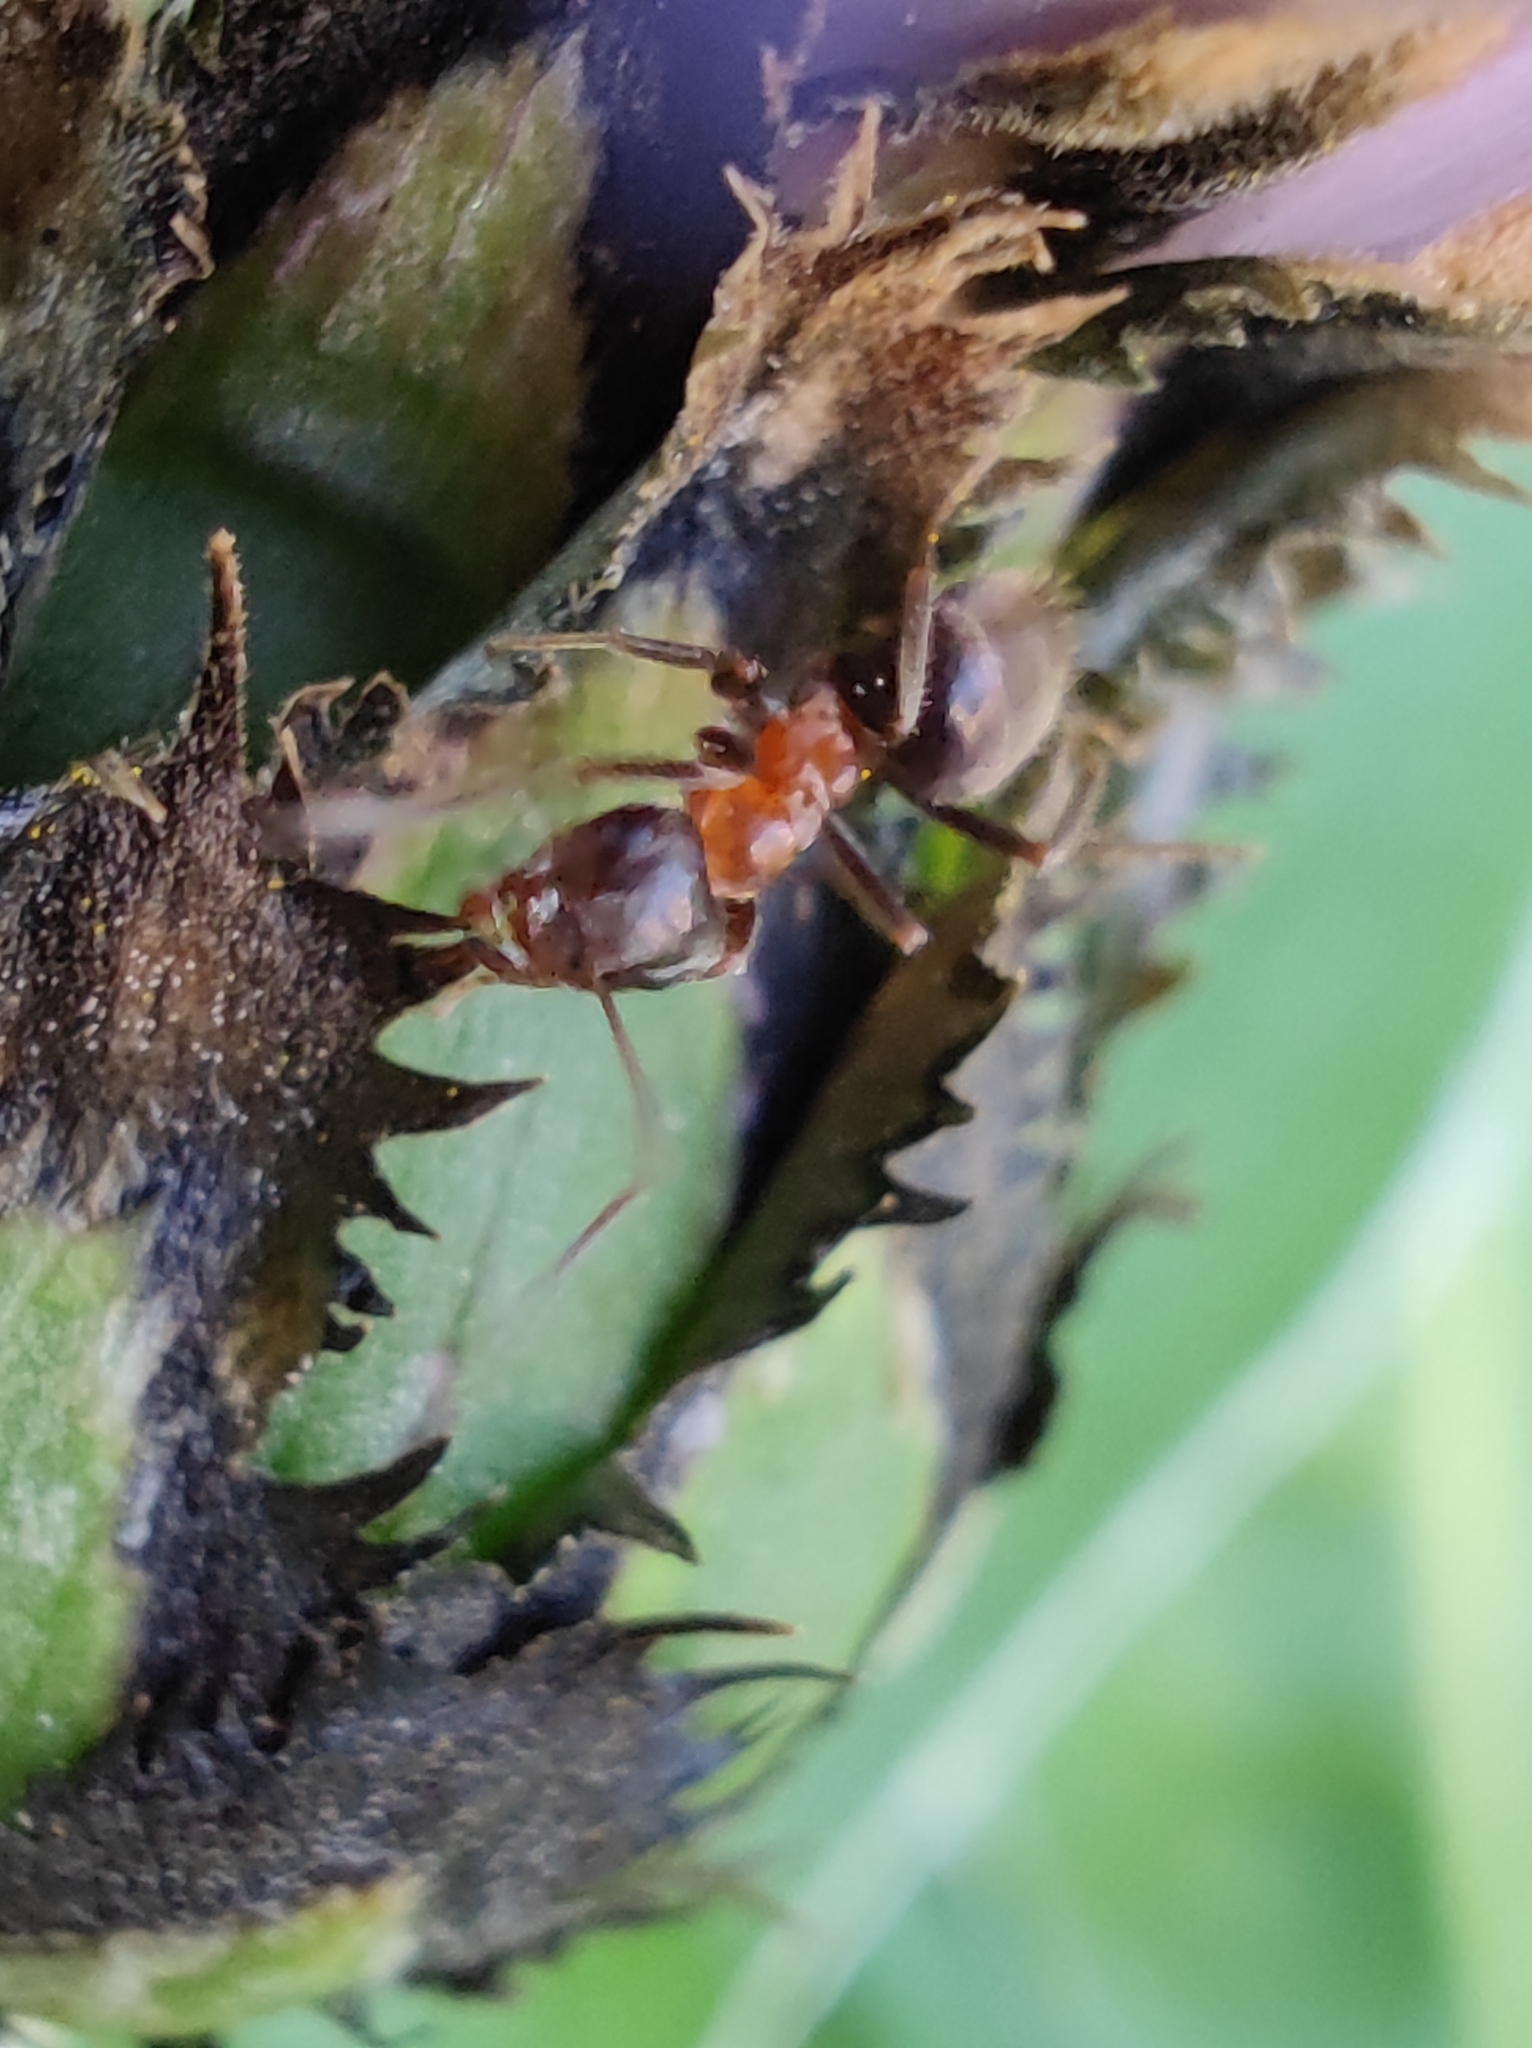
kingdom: Animalia
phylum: Arthropoda
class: Insecta
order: Hymenoptera
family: Formicidae
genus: Lasius
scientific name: Lasius emarginatus
